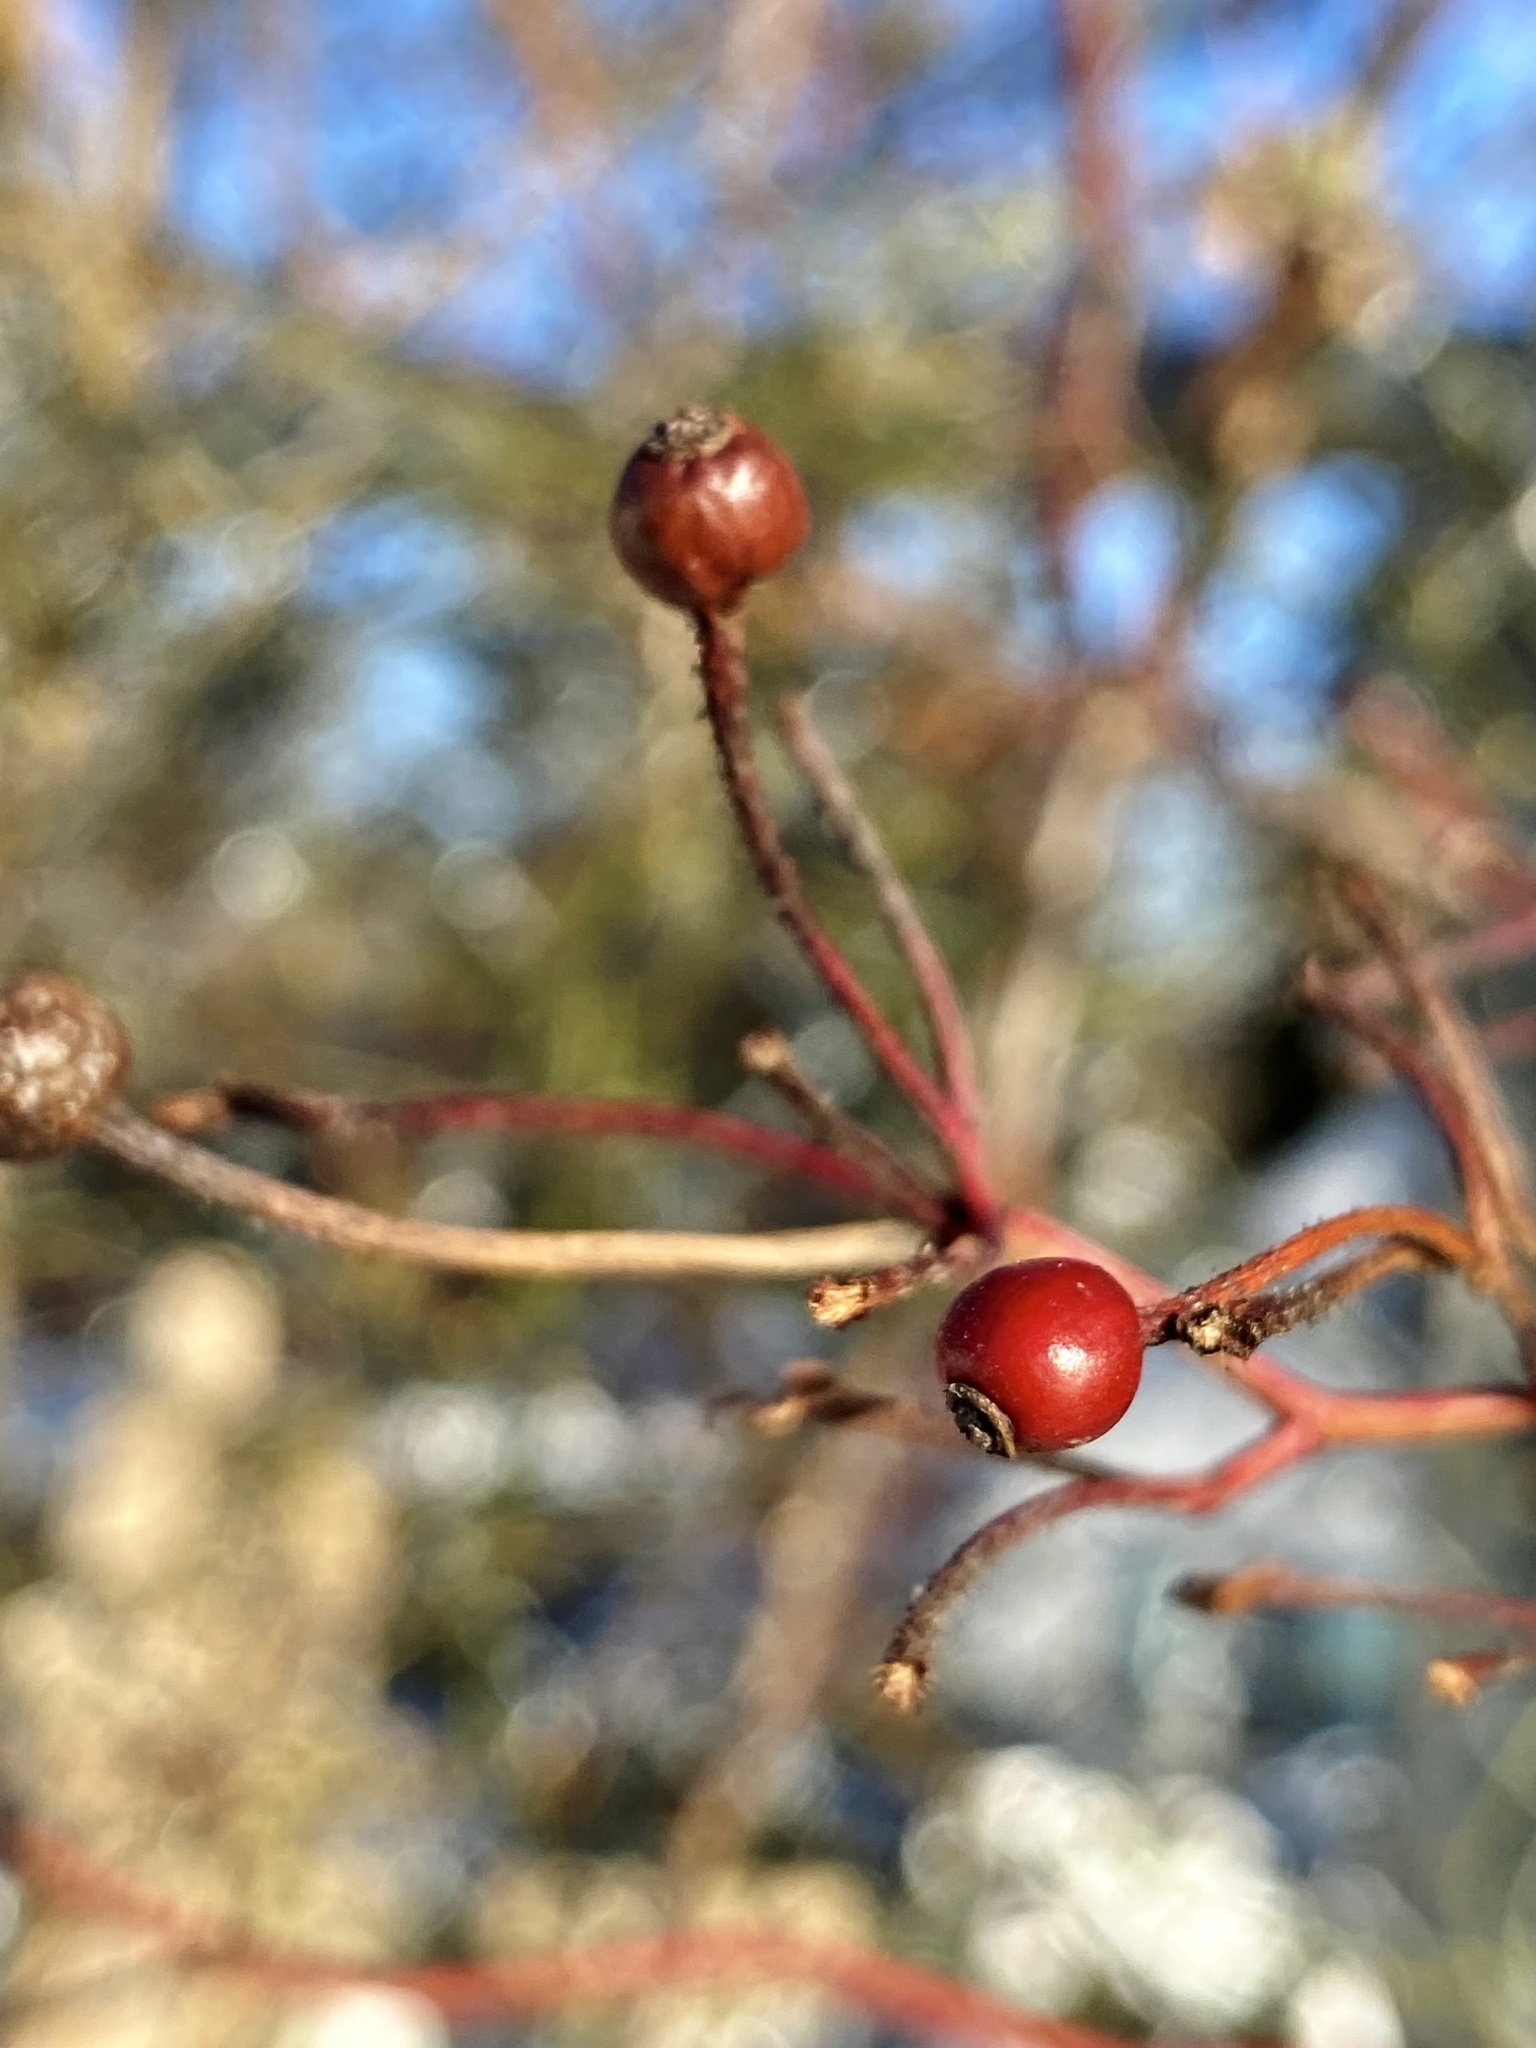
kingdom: Plantae
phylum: Tracheophyta
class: Magnoliopsida
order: Rosales
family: Rosaceae
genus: Rosa
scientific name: Rosa multiflora
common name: Multiflora rose
